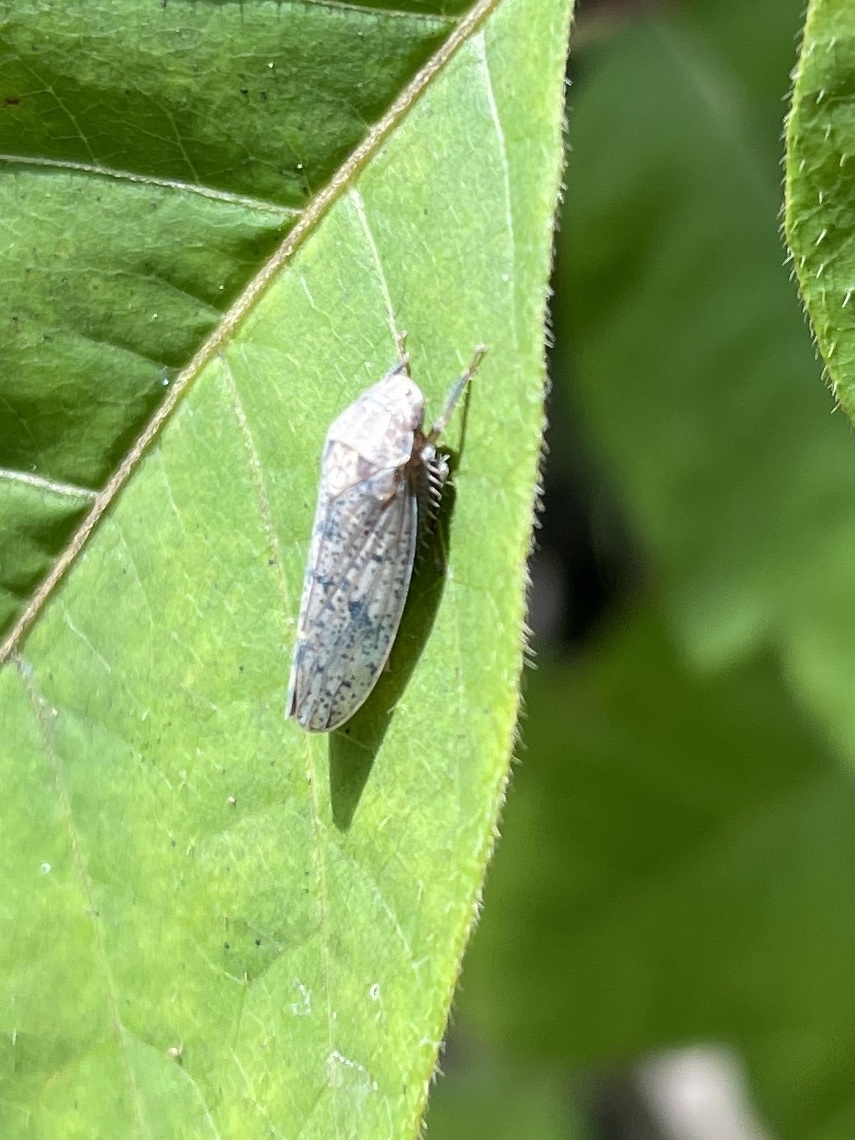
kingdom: Animalia
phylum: Arthropoda
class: Insecta
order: Hemiptera
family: Cicadellidae
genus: Ponana
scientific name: Ponana puncticollis
